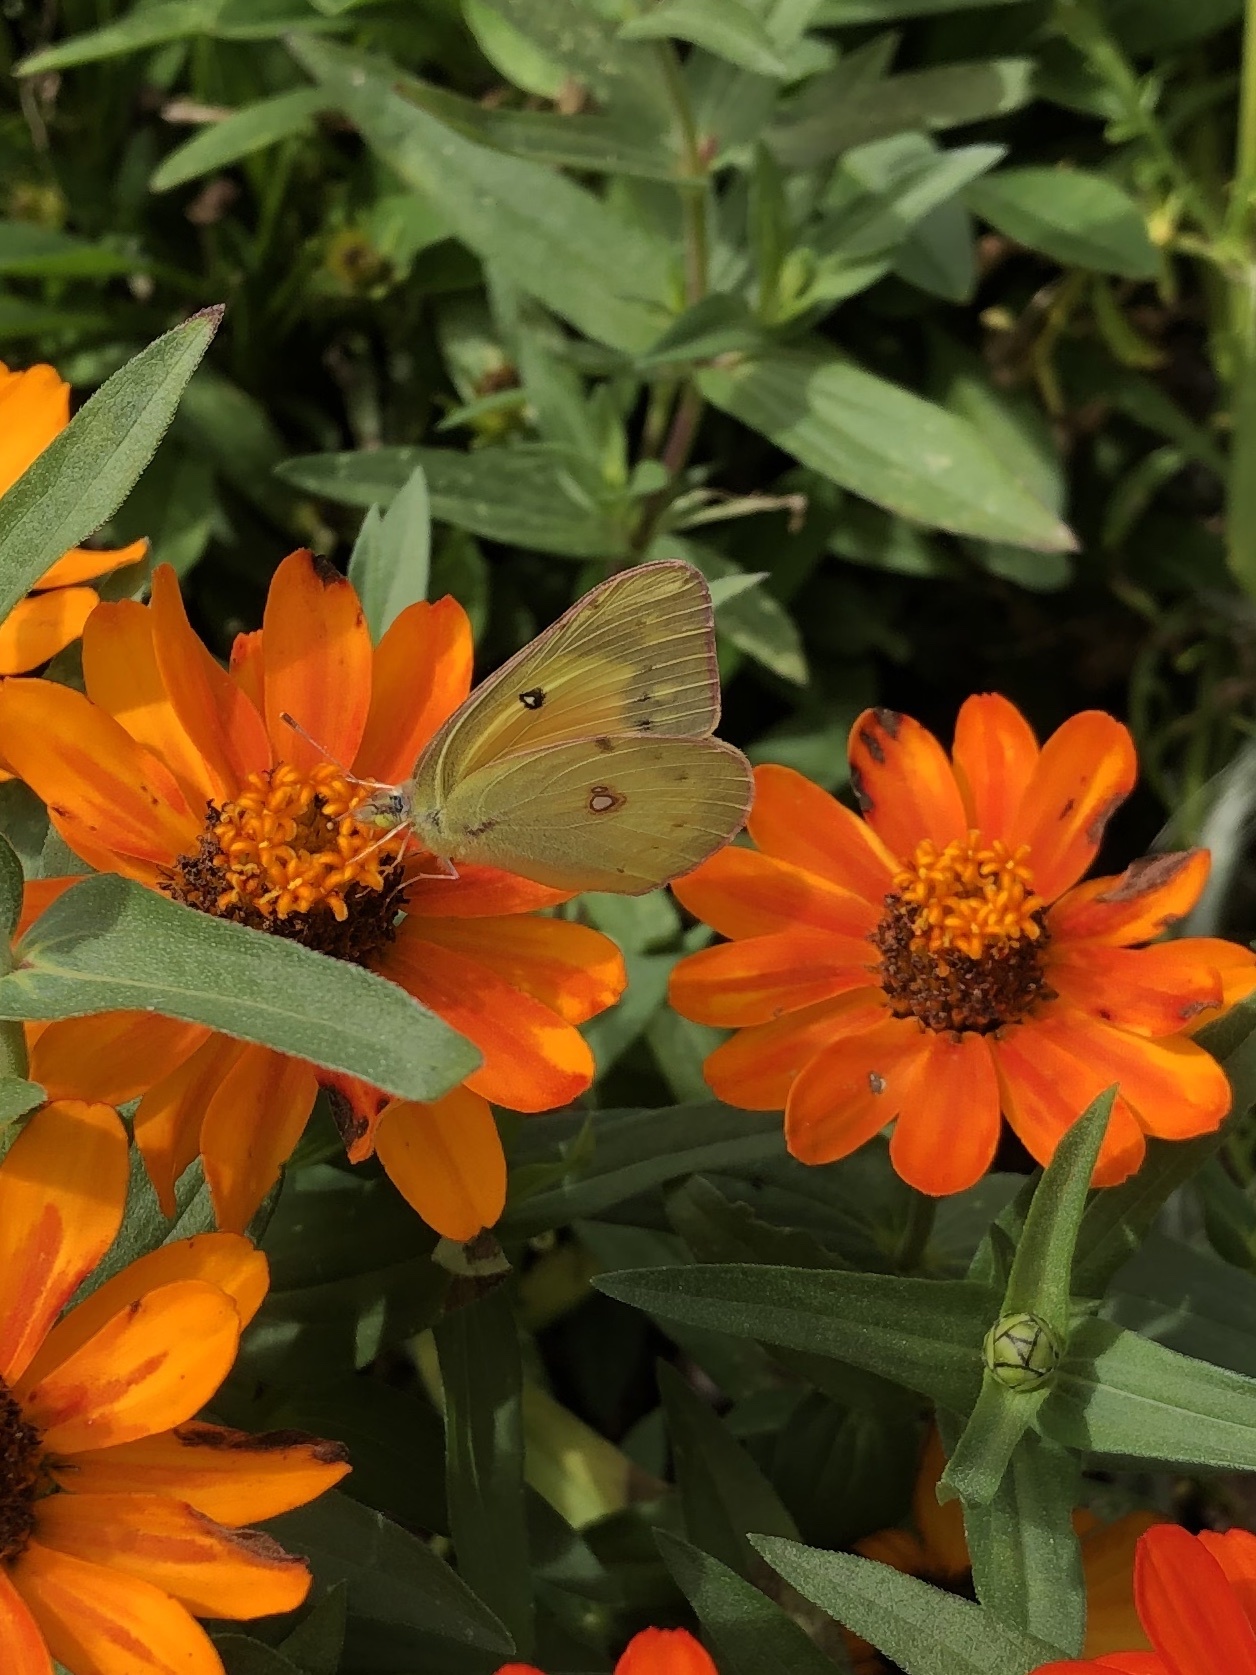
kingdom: Animalia
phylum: Arthropoda
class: Insecta
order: Lepidoptera
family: Pieridae
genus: Colias
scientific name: Colias eurytheme
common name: Alfalfa butterfly
